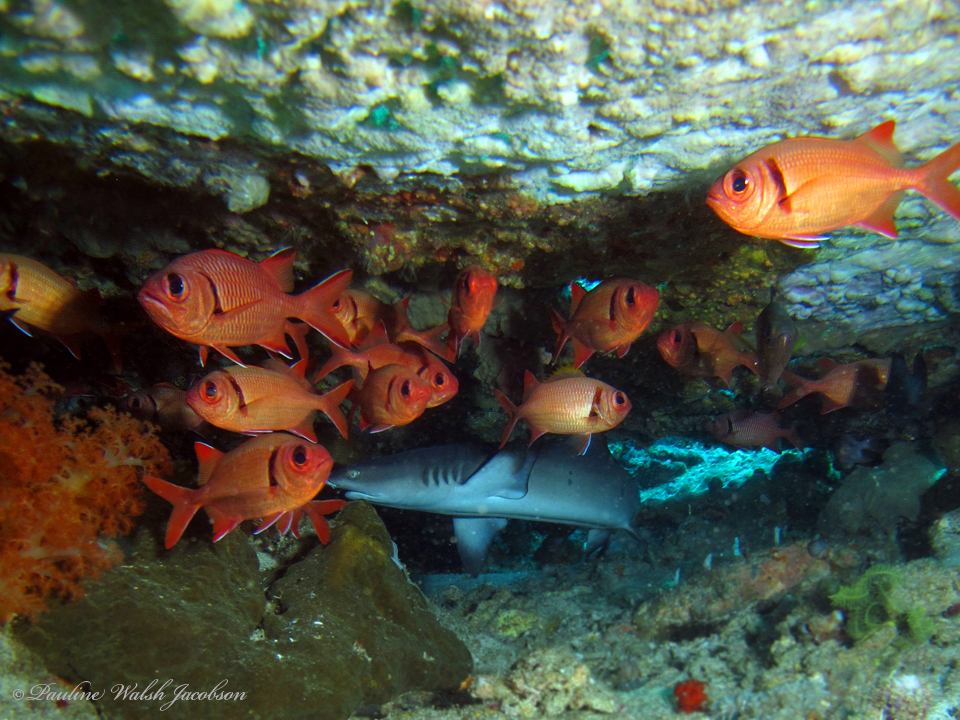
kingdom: Animalia
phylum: Chordata
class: Elasmobranchii
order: Carcharhiniformes
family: Carcharhinidae
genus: Triaenodon
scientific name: Triaenodon obesus
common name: Whitetip reef shark
